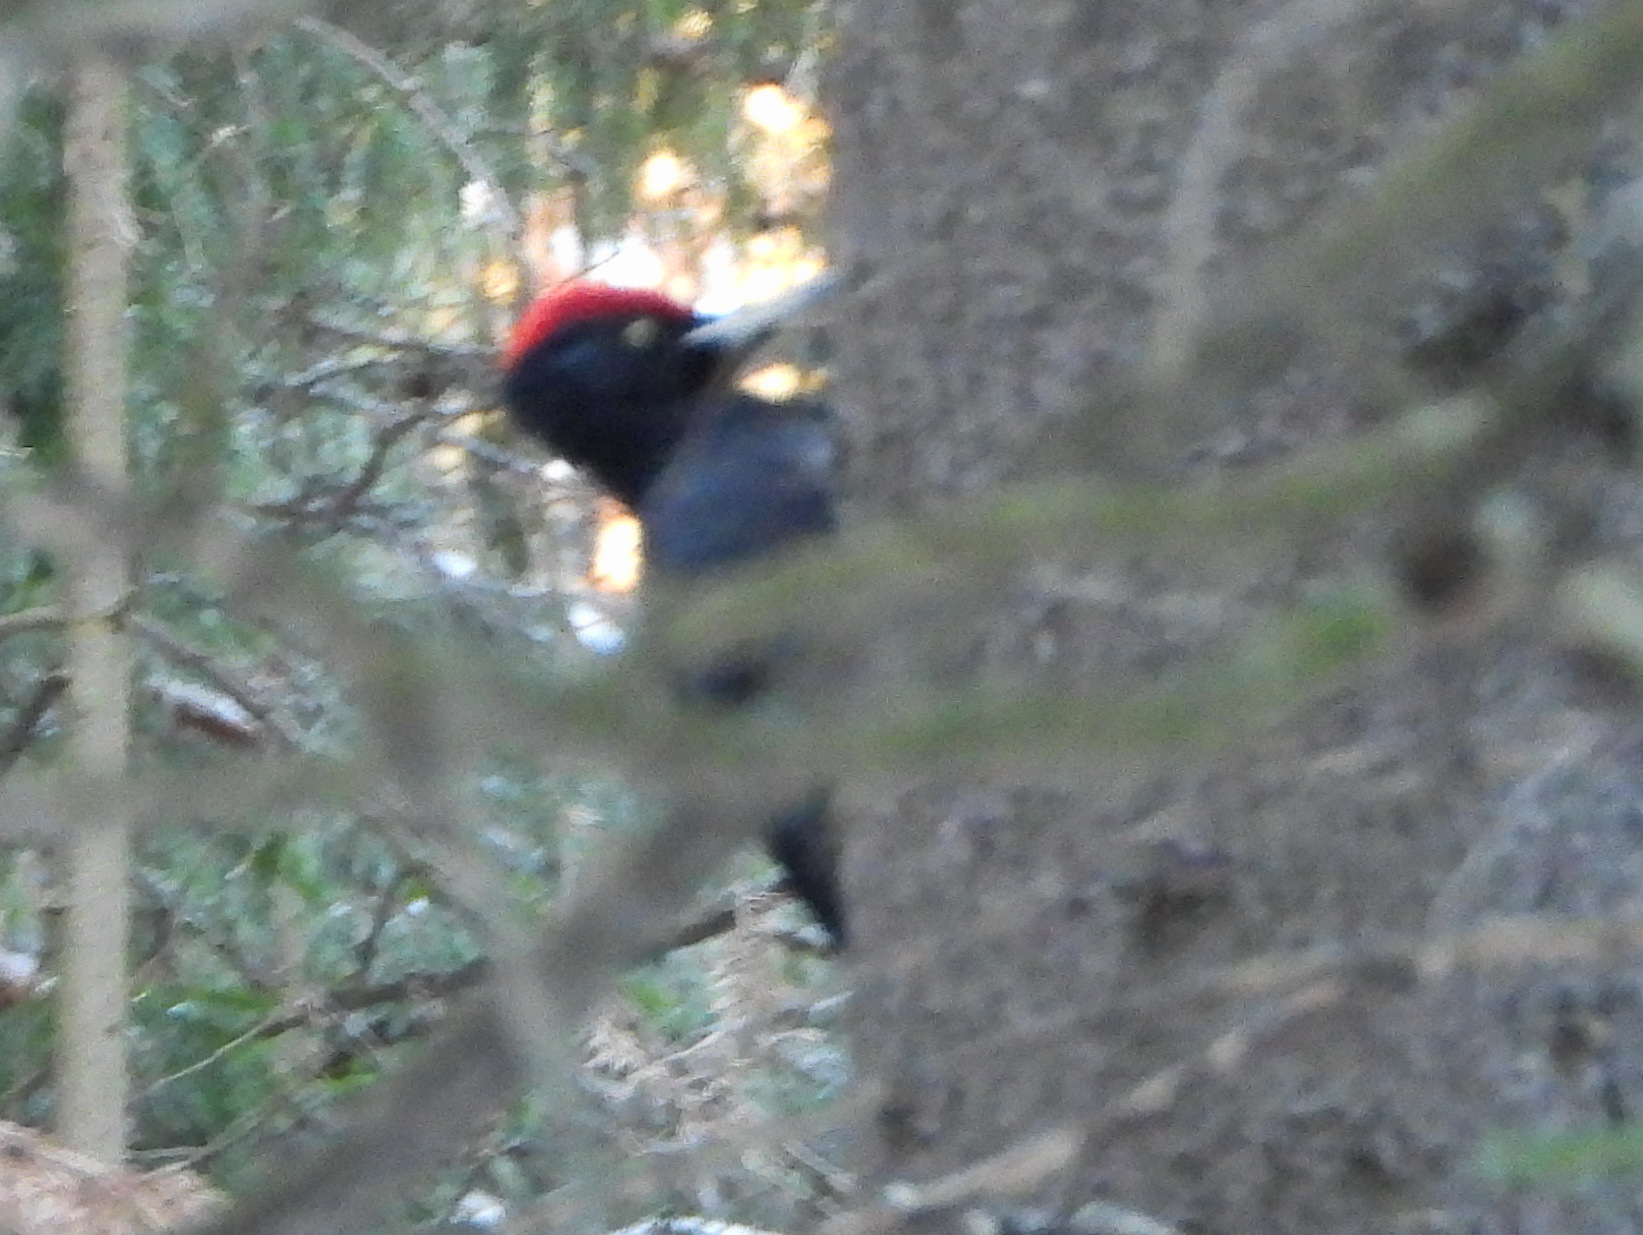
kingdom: Animalia
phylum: Chordata
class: Aves
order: Piciformes
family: Picidae
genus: Dryocopus
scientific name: Dryocopus martius
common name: Black woodpecker
